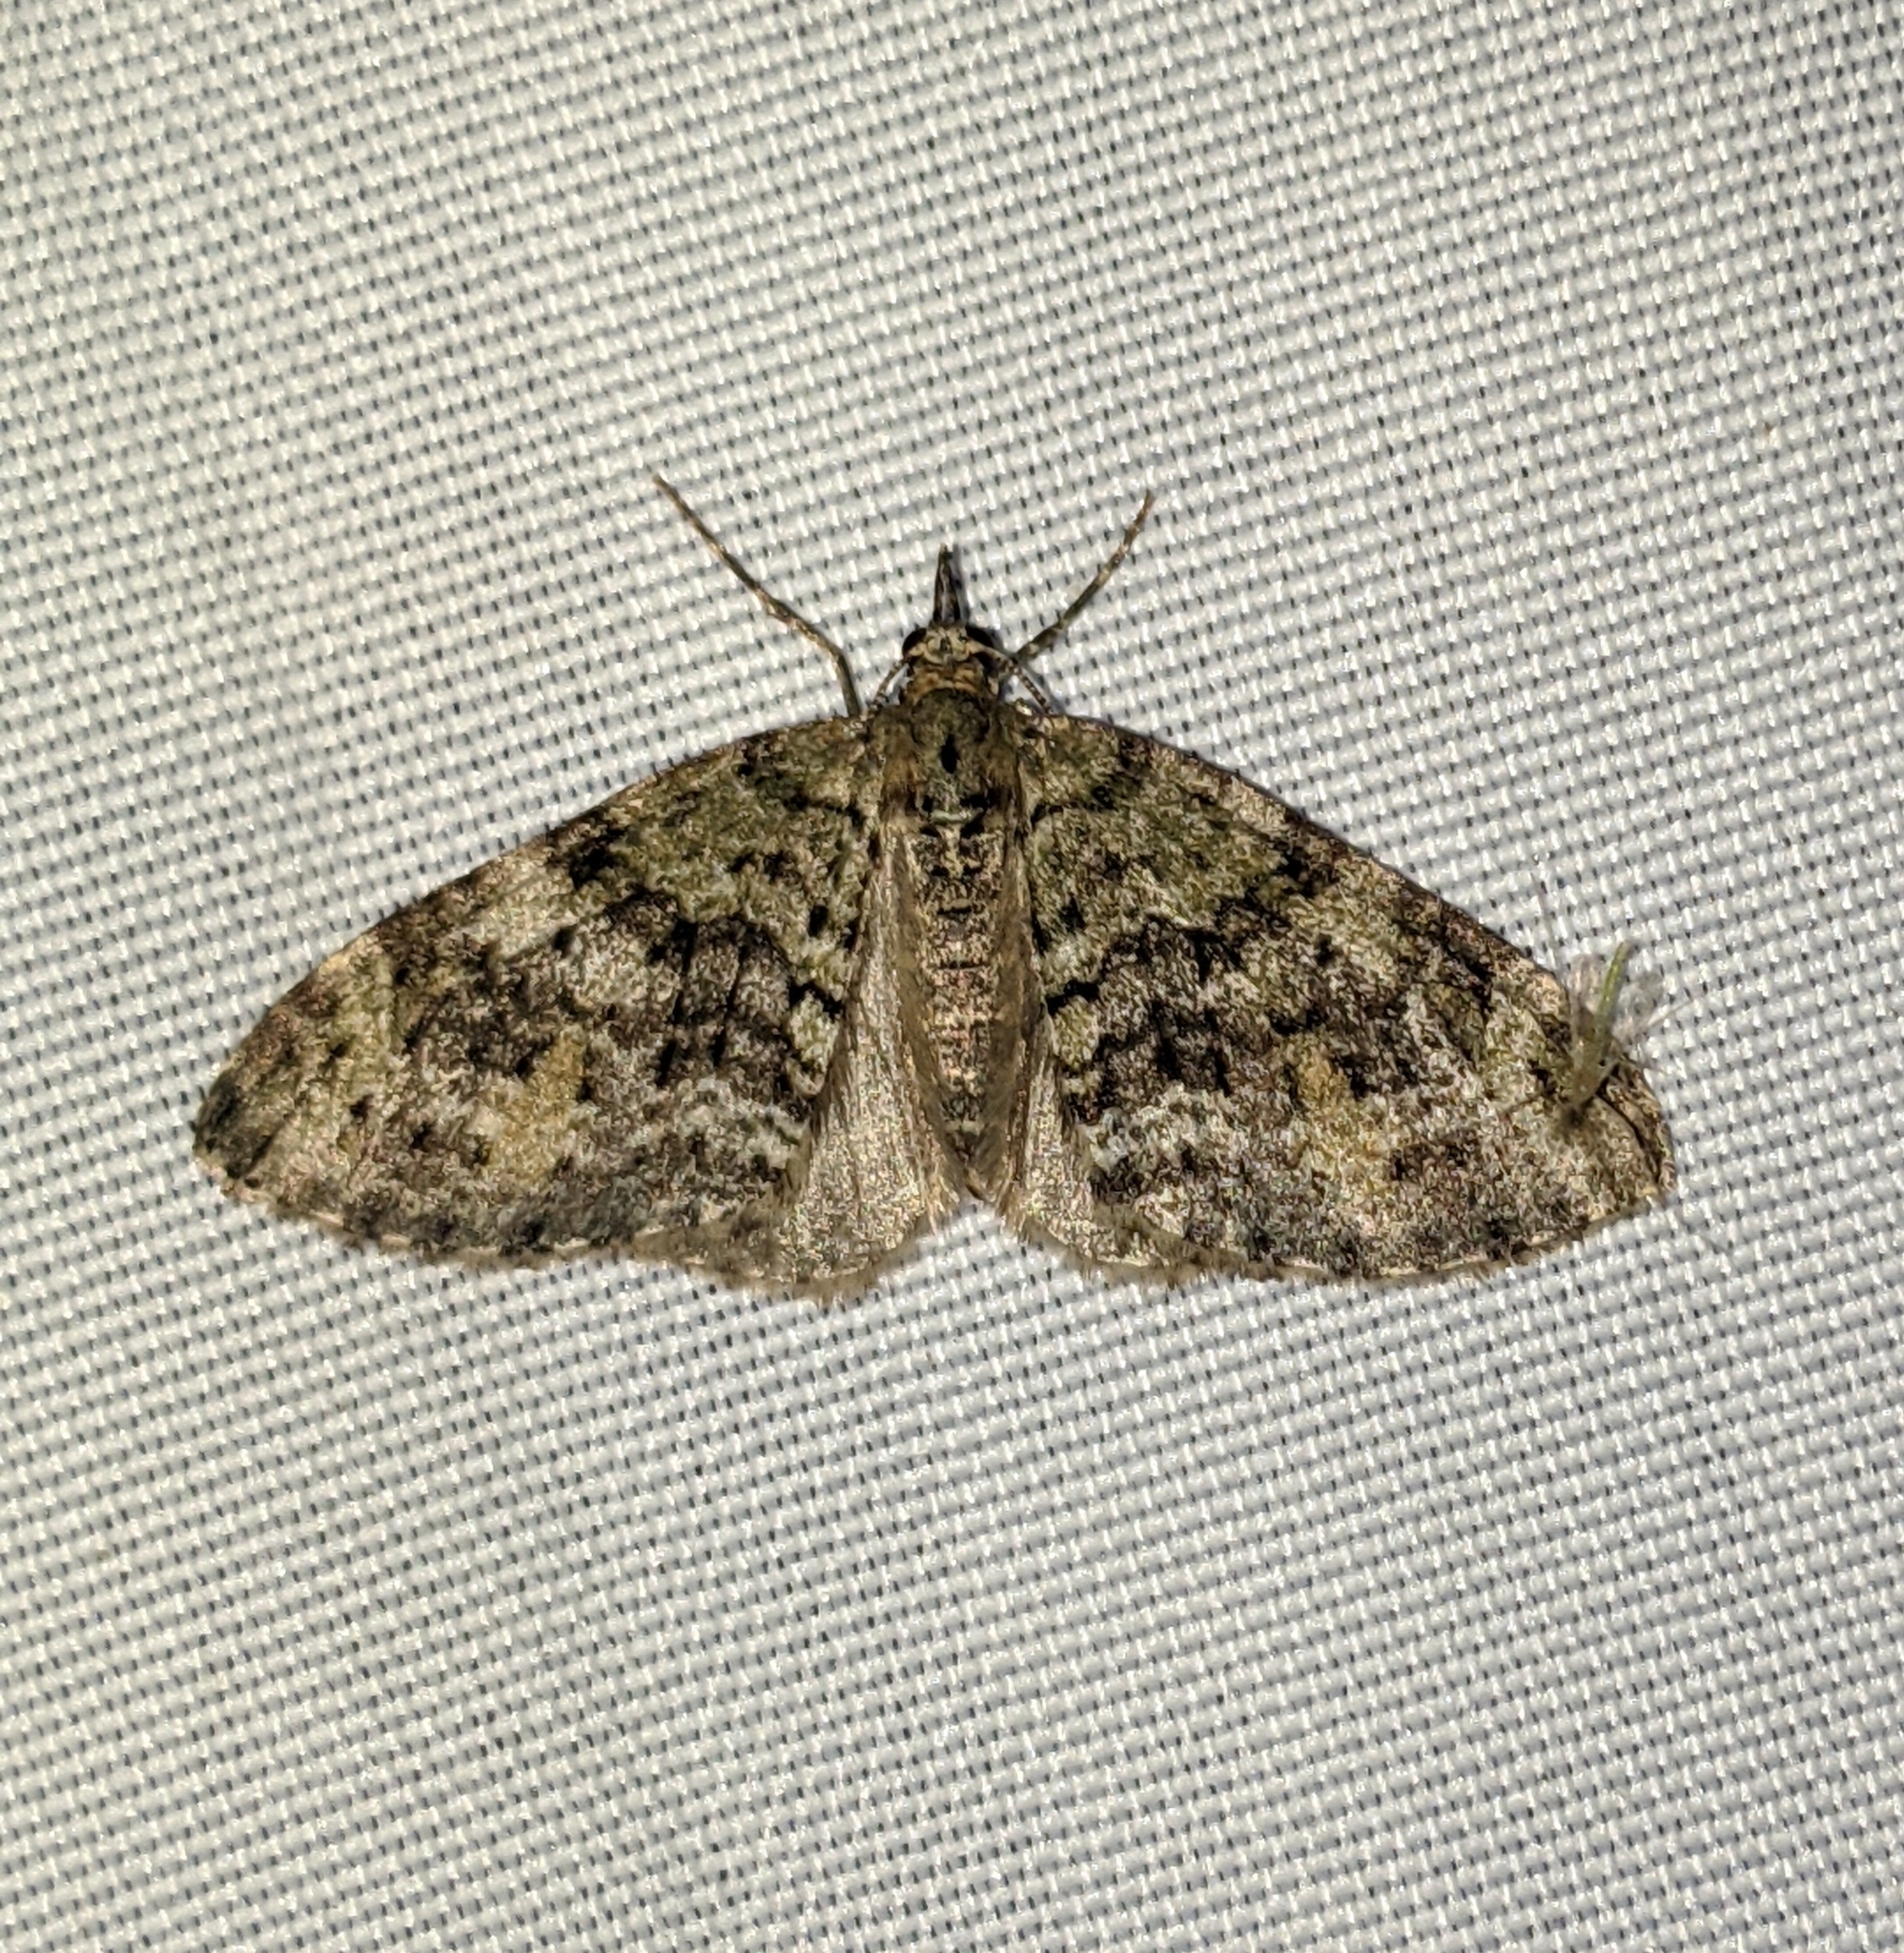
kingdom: Animalia
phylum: Arthropoda
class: Insecta
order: Lepidoptera
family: Geometridae
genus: Acasis
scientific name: Acasis viridata
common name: Olive-and-black carpet moth
